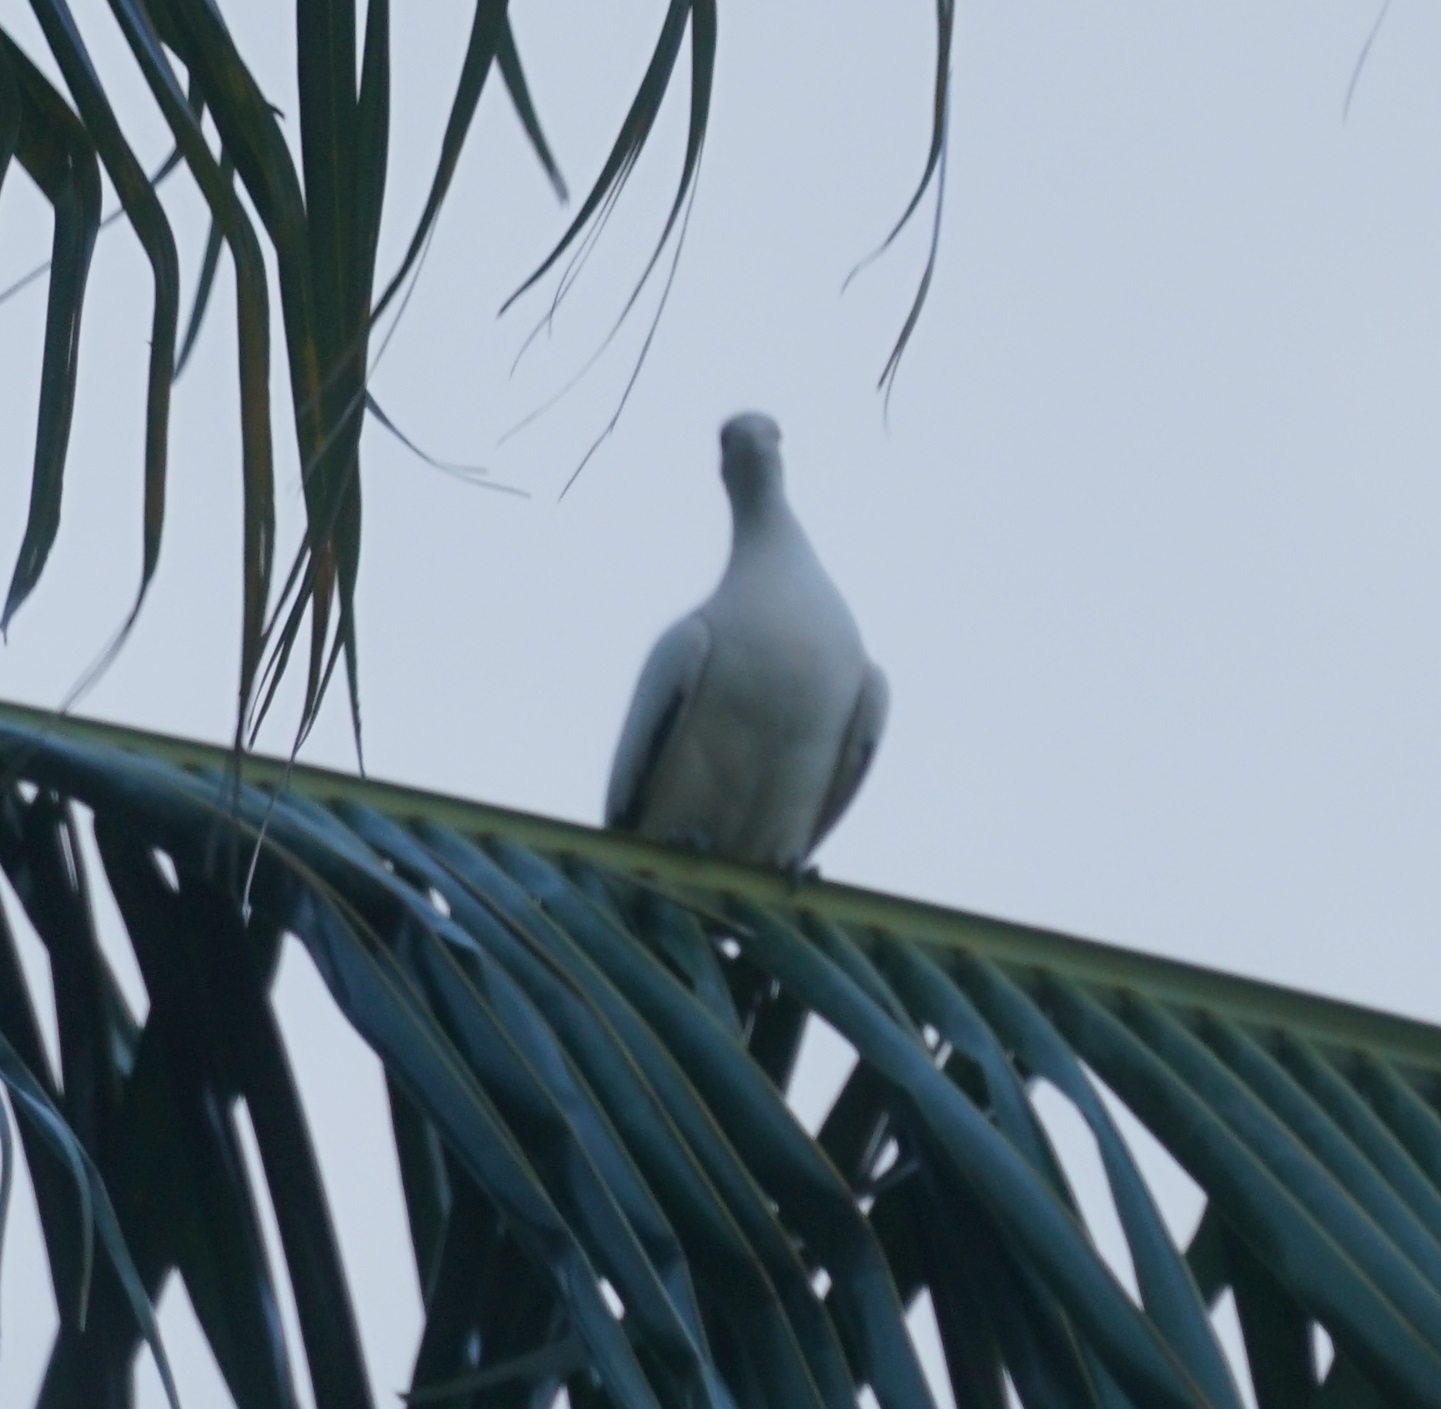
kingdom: Animalia
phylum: Chordata
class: Aves
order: Columbiformes
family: Columbidae
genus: Ducula
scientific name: Ducula spilorrhoa
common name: Torresian imperial pigeon
